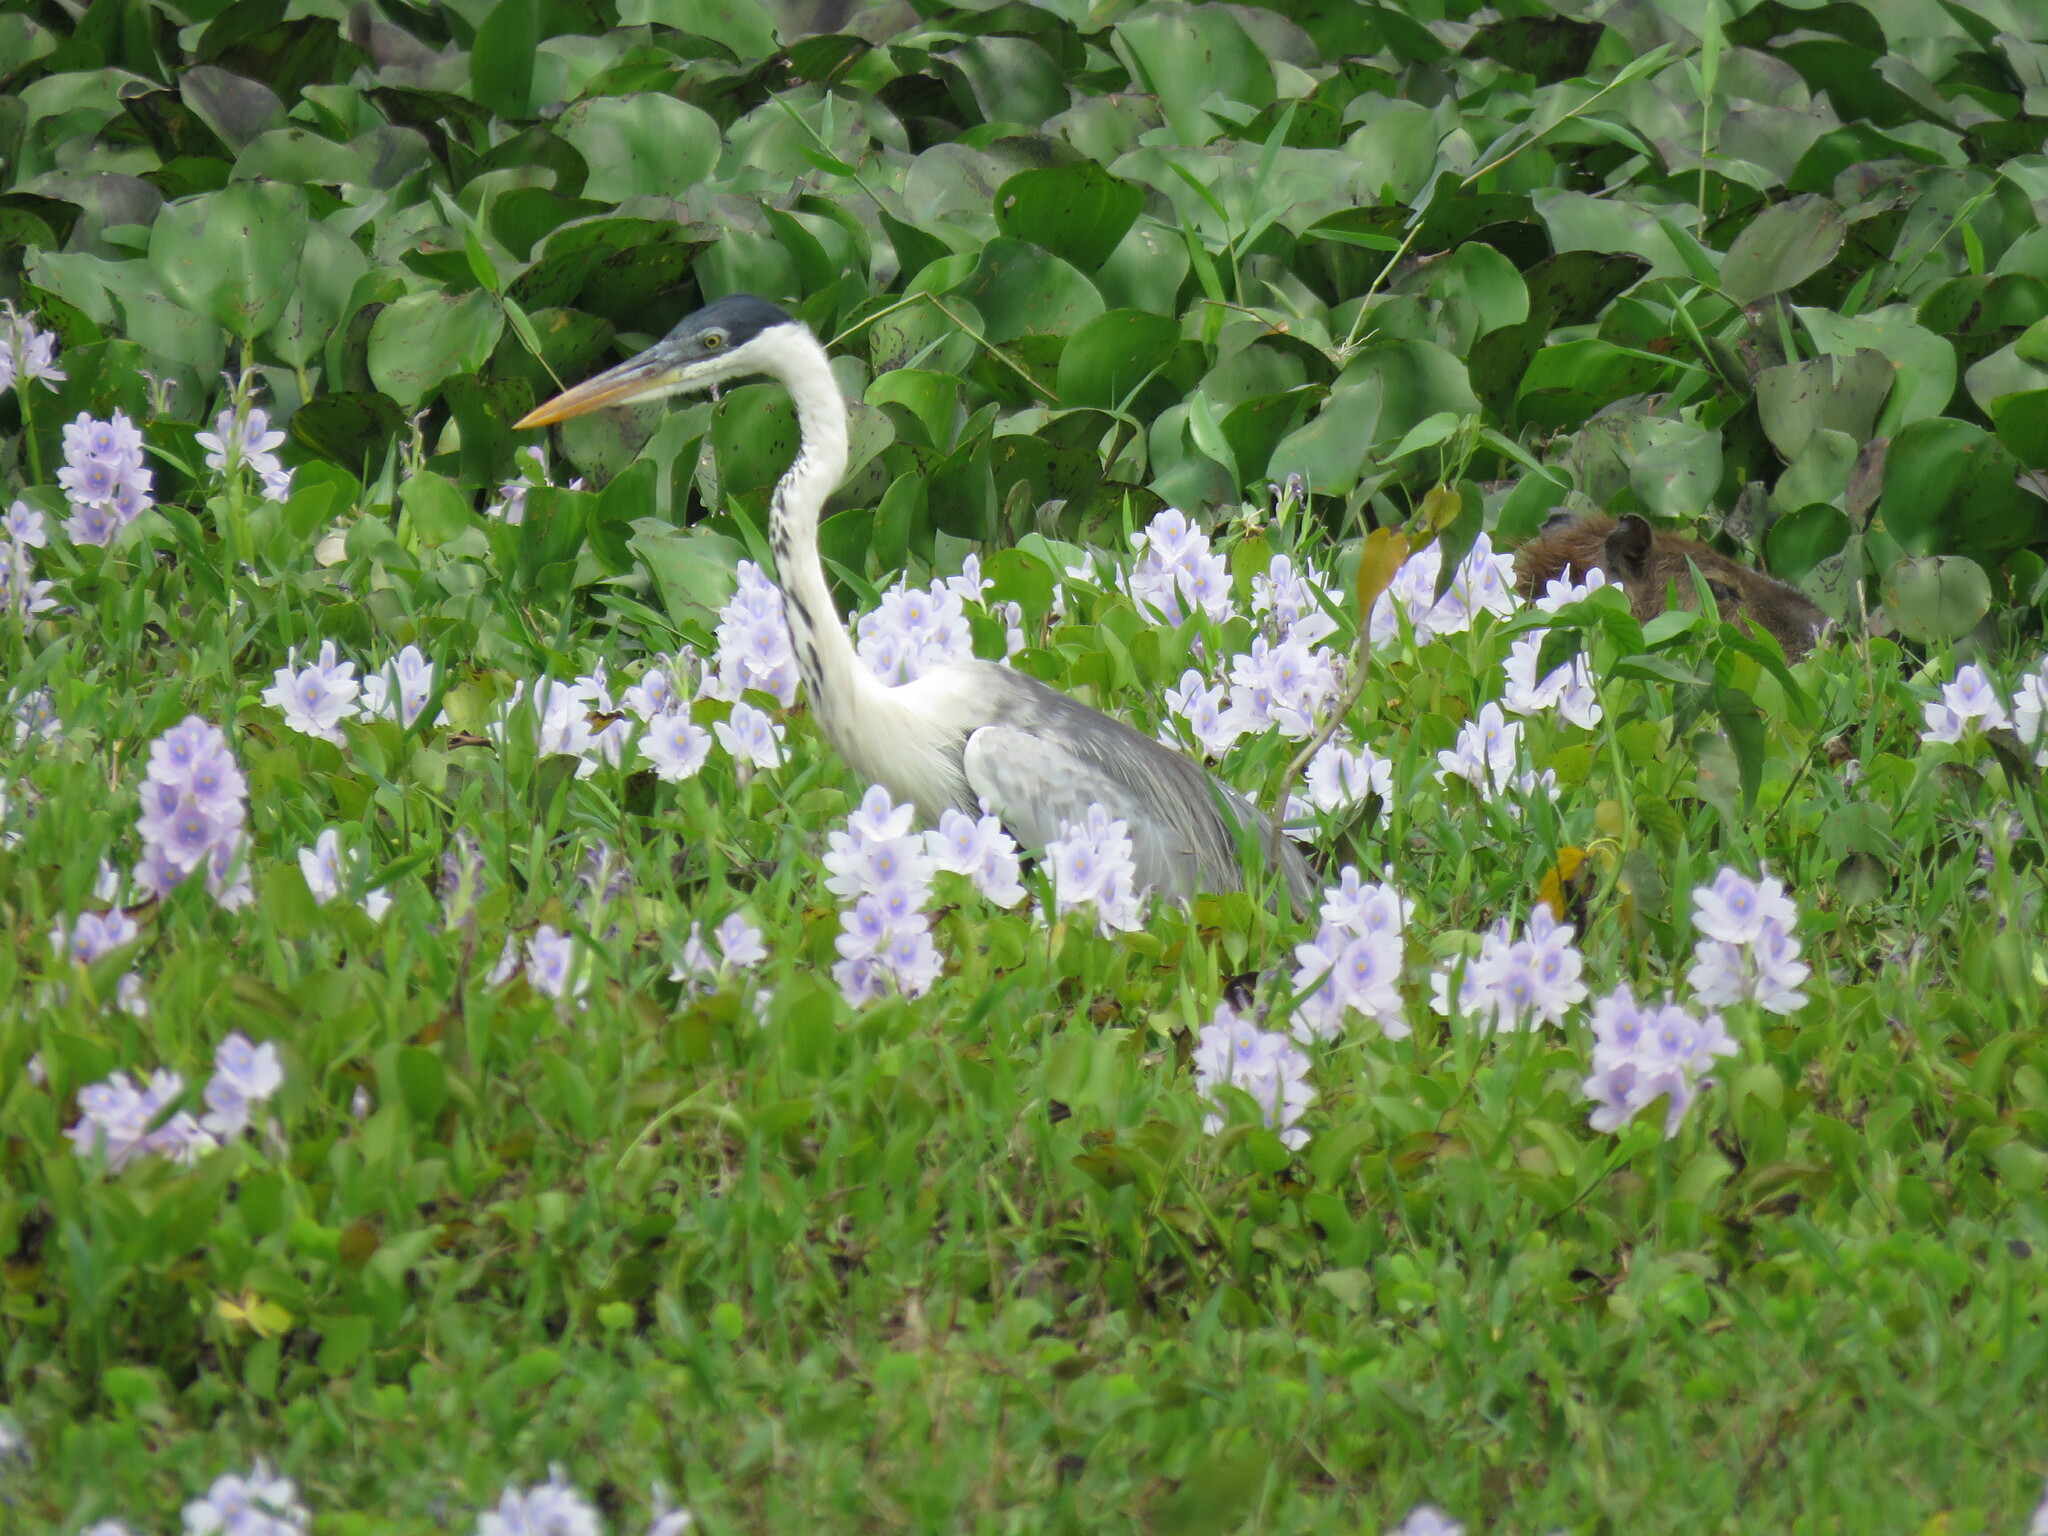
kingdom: Animalia
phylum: Chordata
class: Aves
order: Pelecaniformes
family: Ardeidae
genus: Ardea
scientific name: Ardea cocoi
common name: Cocoi heron
